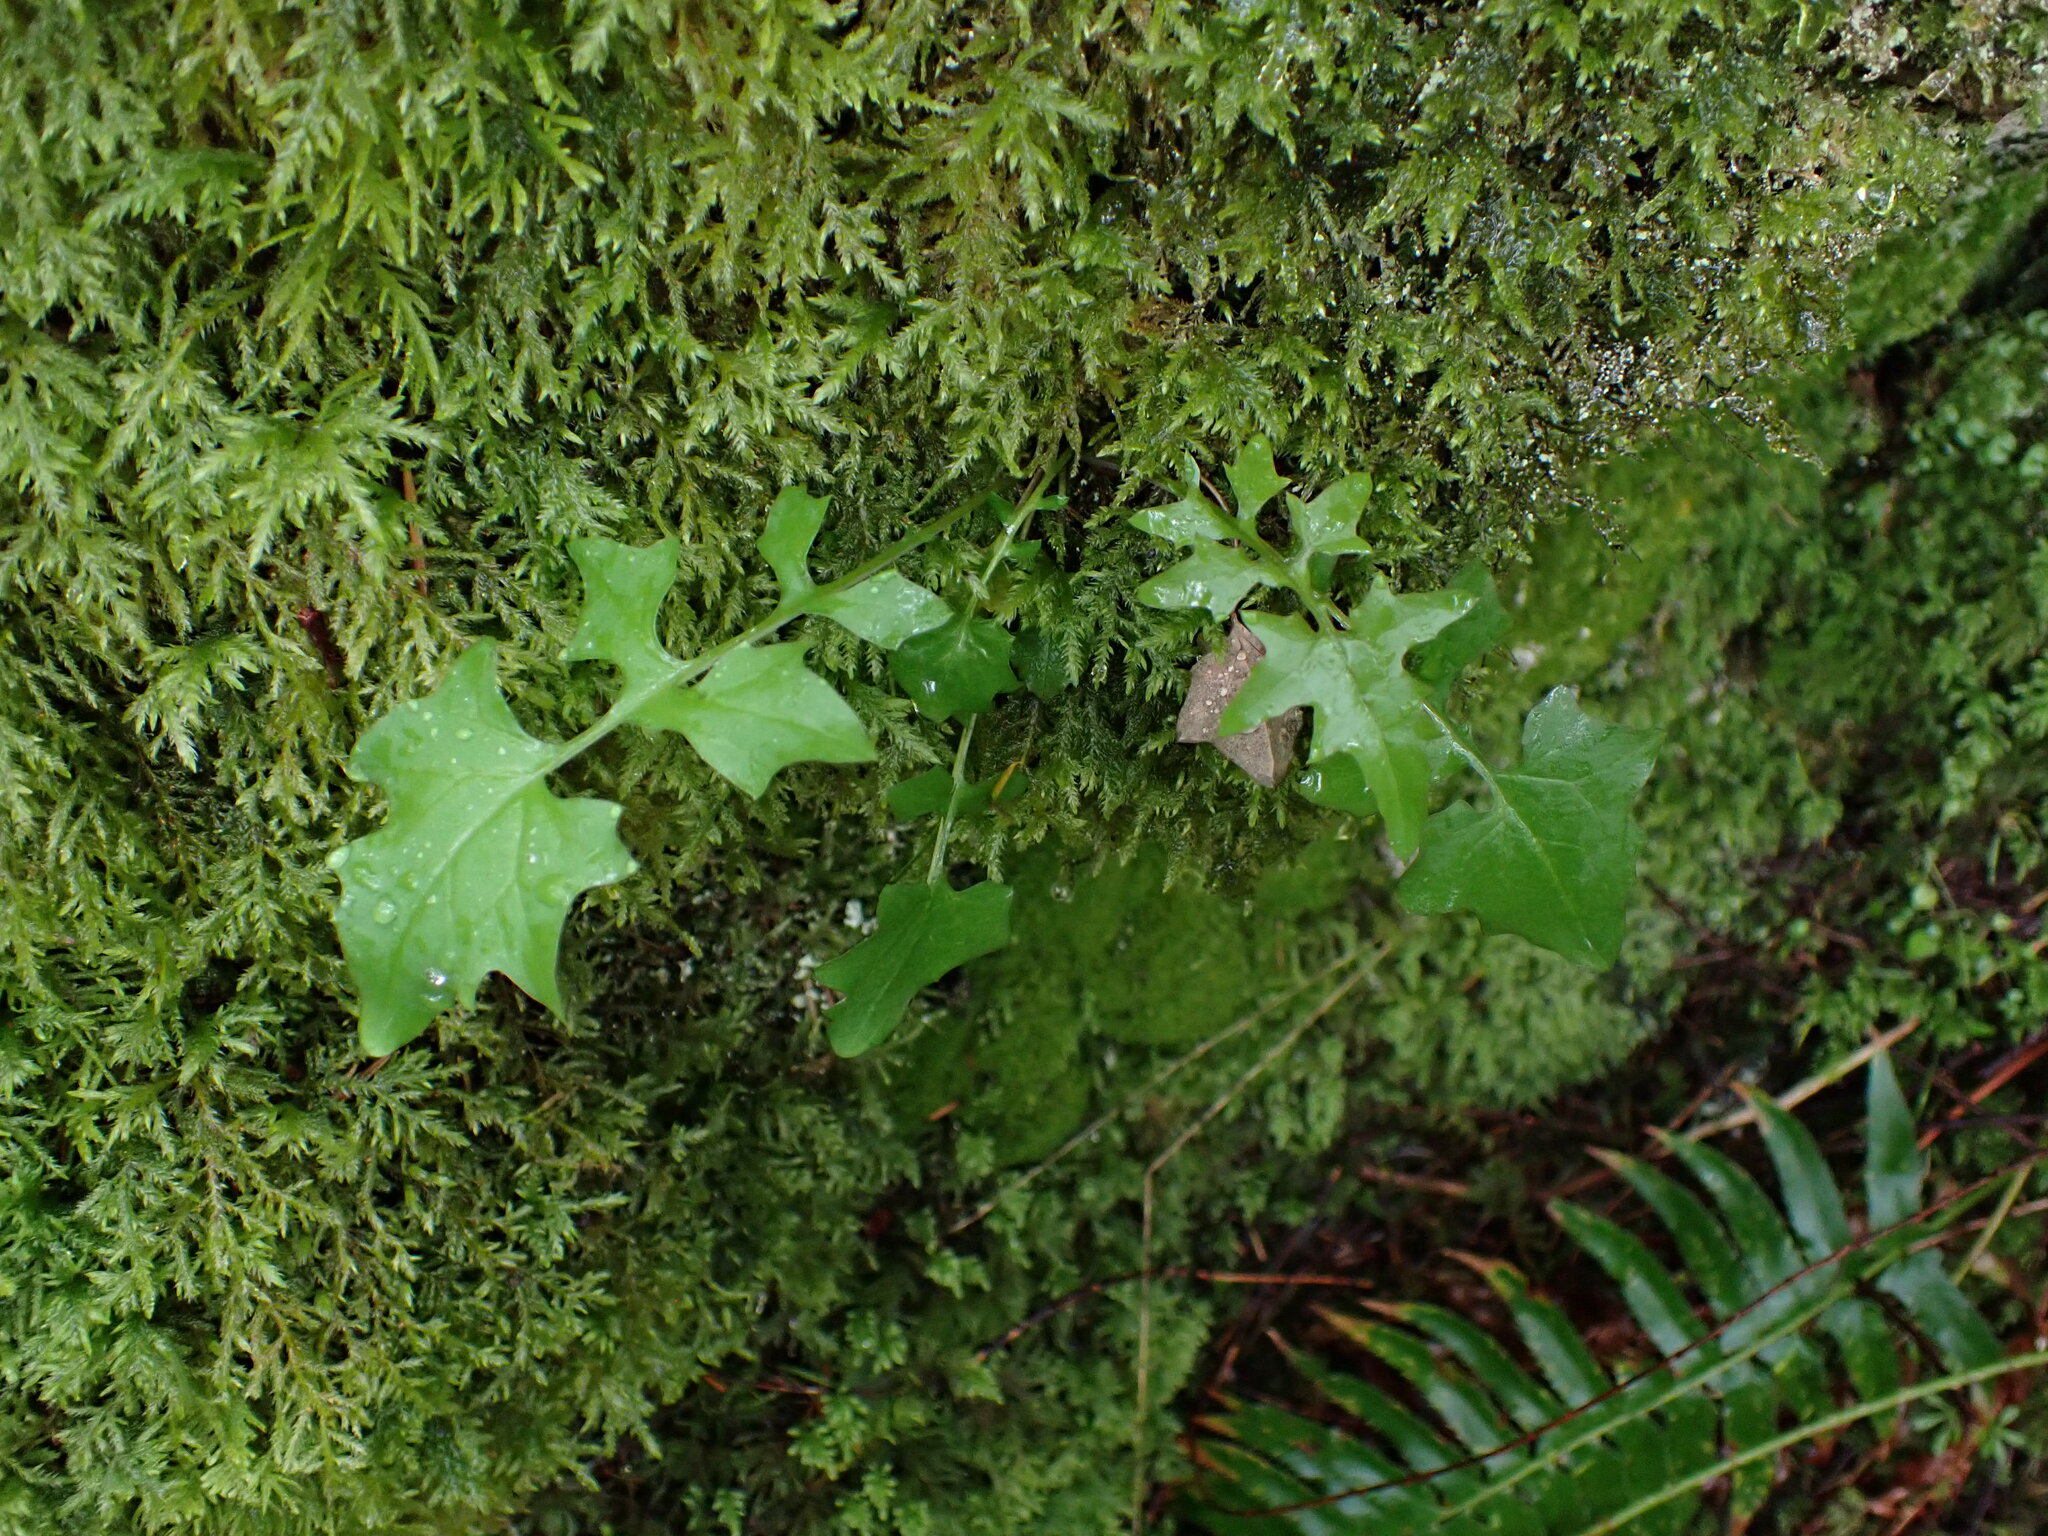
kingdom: Plantae
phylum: Tracheophyta
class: Magnoliopsida
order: Asterales
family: Asteraceae
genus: Mycelis
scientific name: Mycelis muralis
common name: Wall lettuce
